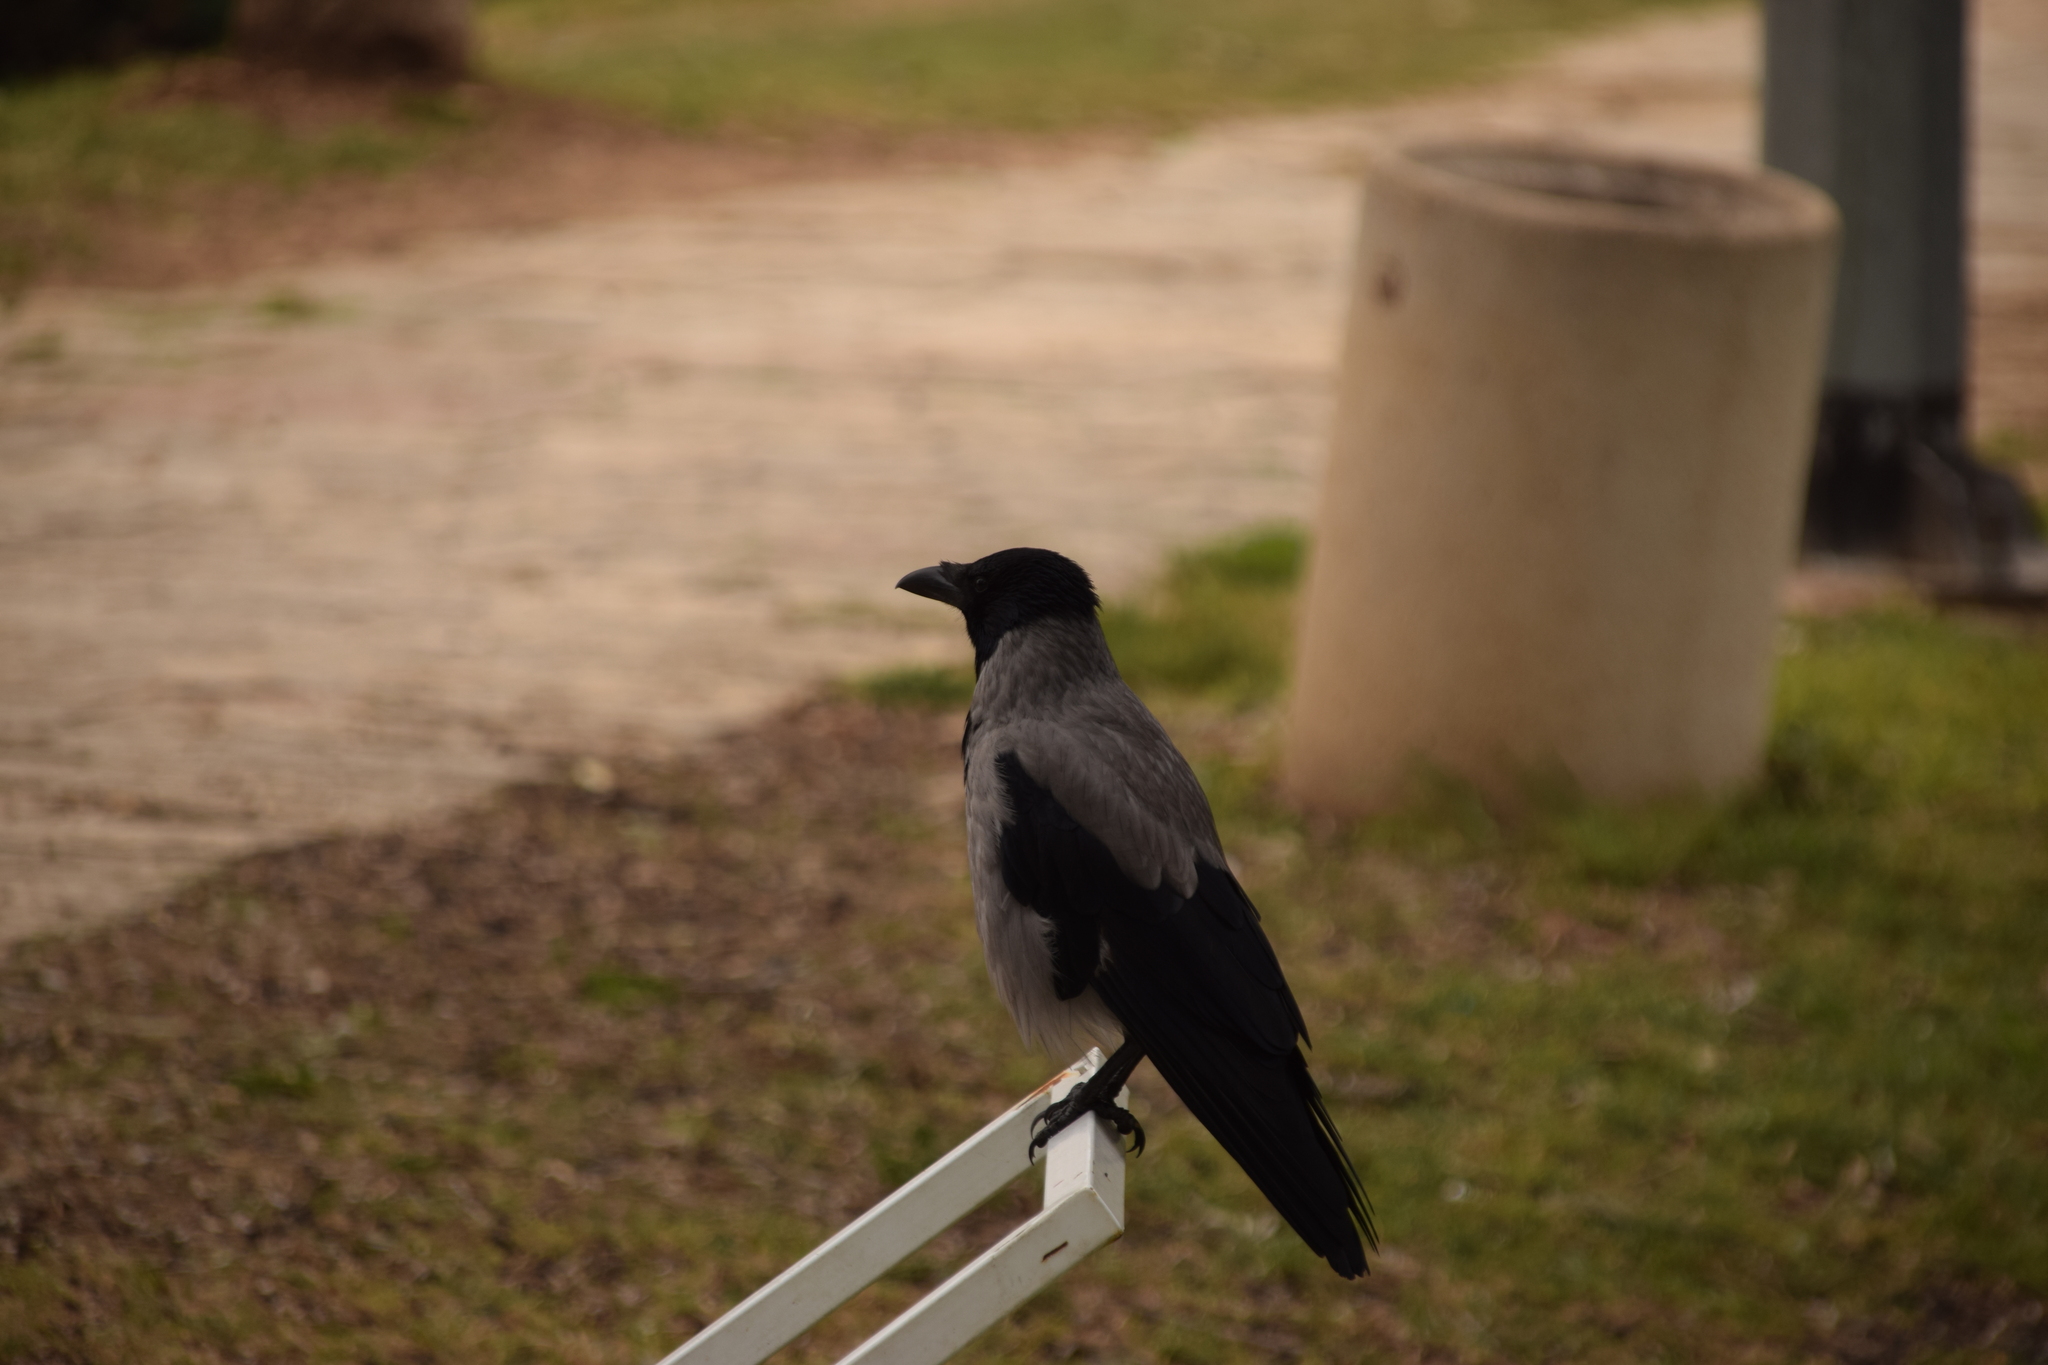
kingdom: Animalia
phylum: Chordata
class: Aves
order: Passeriformes
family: Corvidae
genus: Corvus
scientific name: Corvus cornix
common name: Hooded crow
